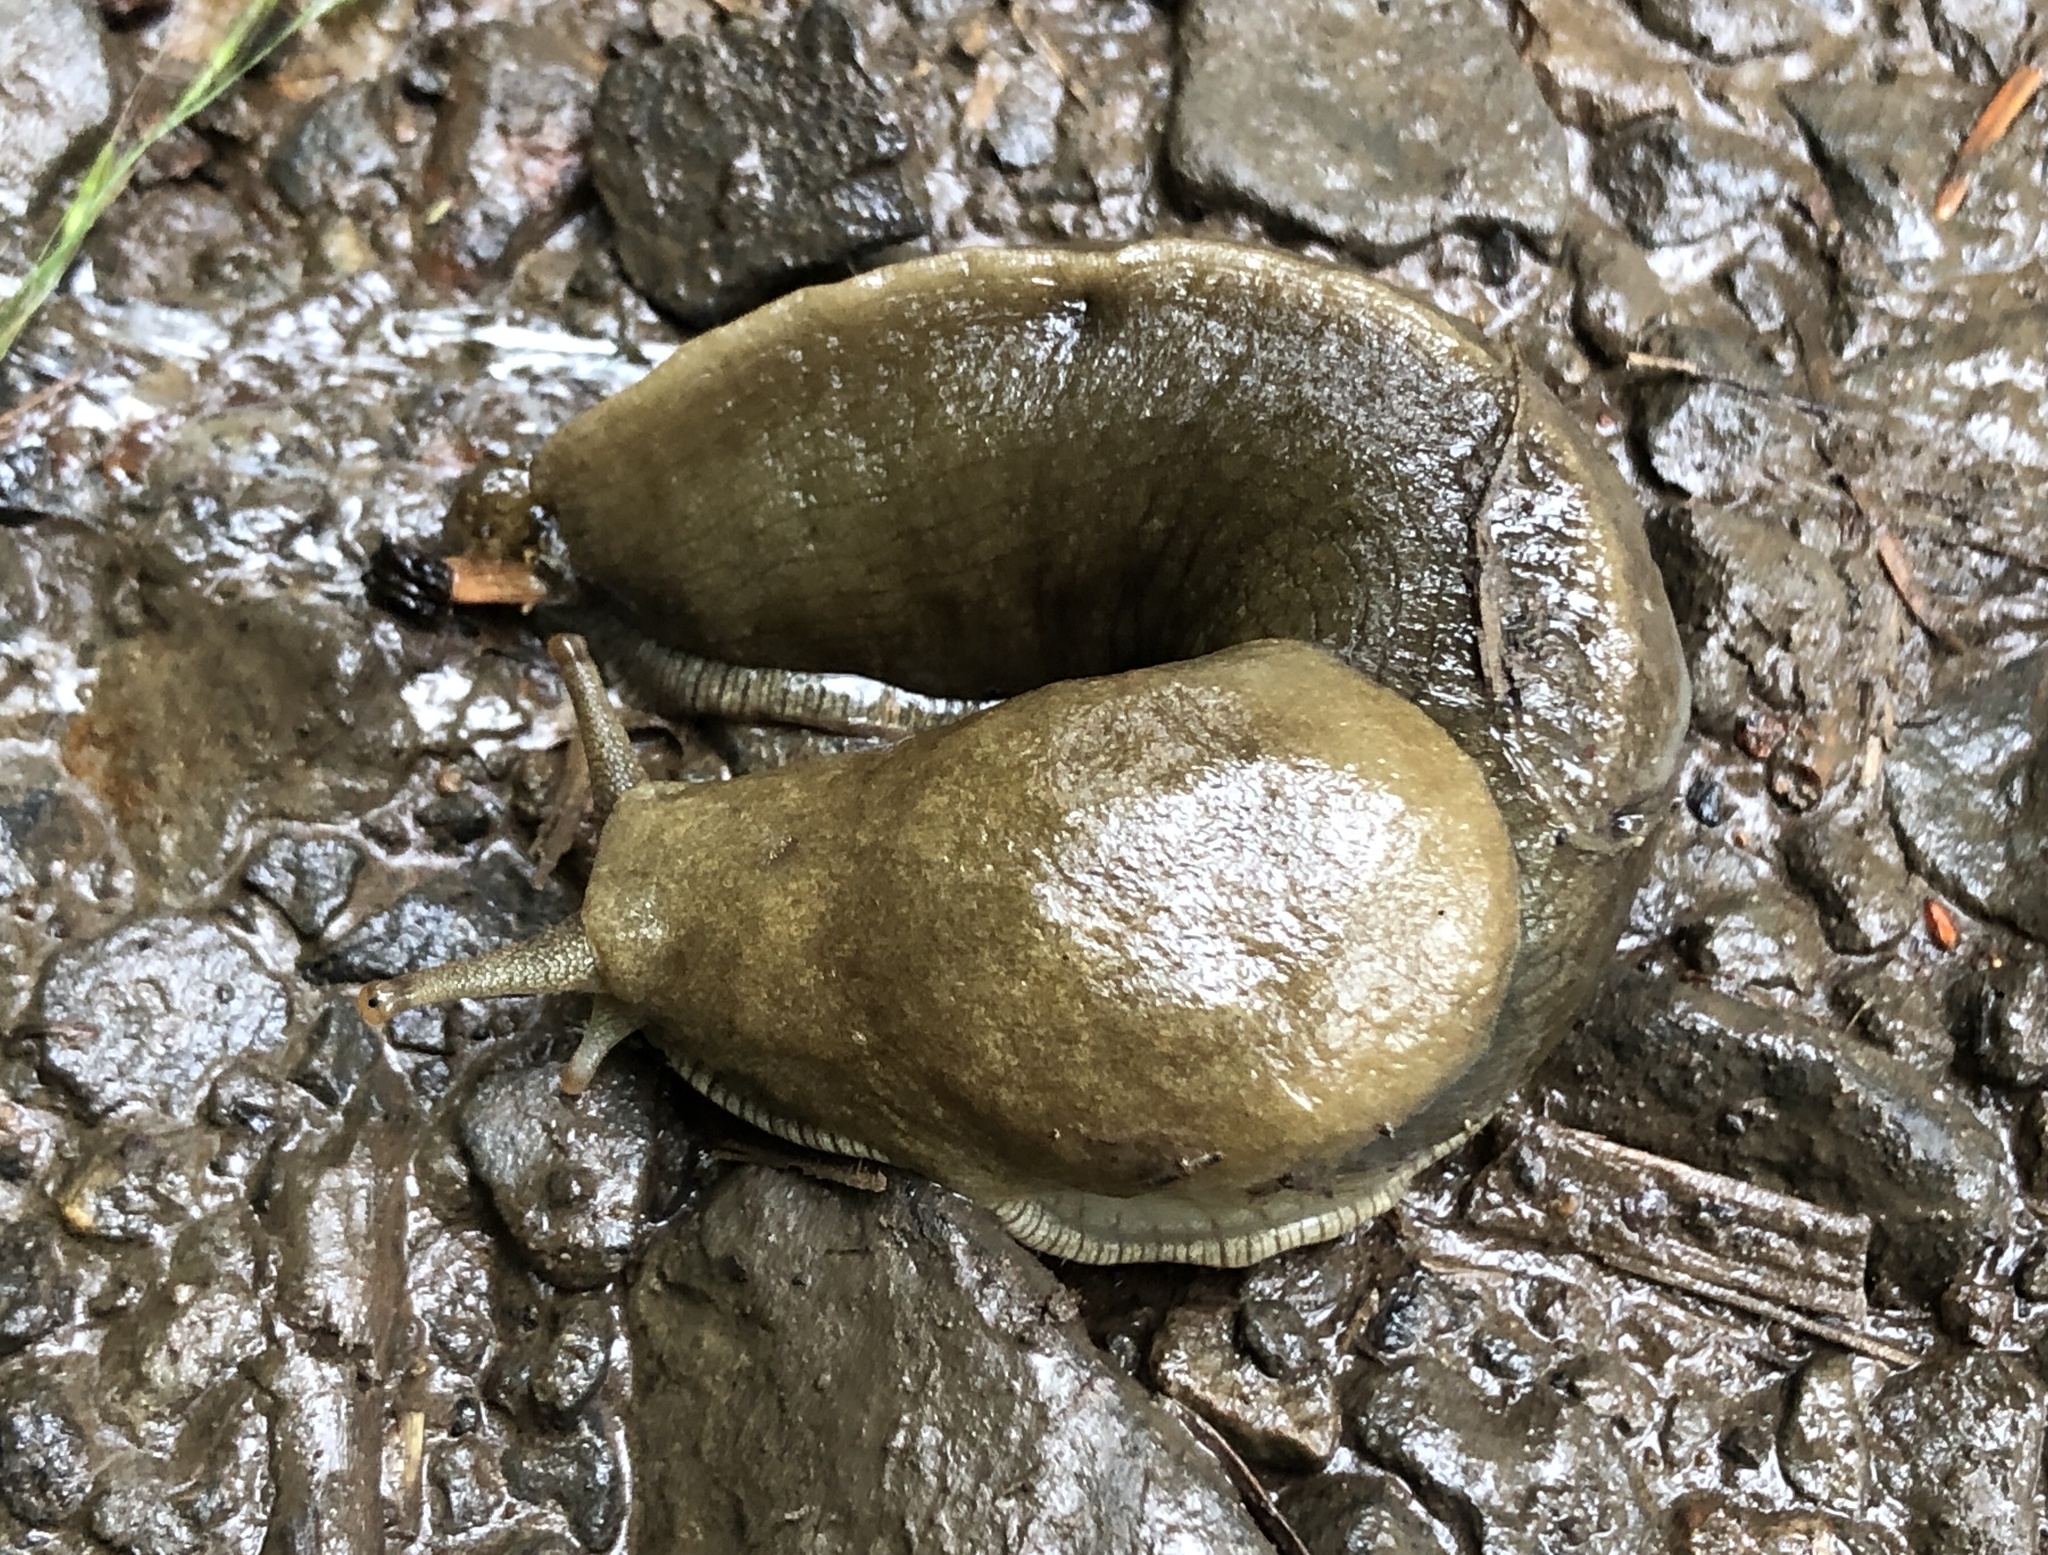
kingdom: Animalia
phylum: Mollusca
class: Gastropoda
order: Stylommatophora
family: Ariolimacidae
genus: Ariolimax
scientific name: Ariolimax columbianus
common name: Pacific banana slug
